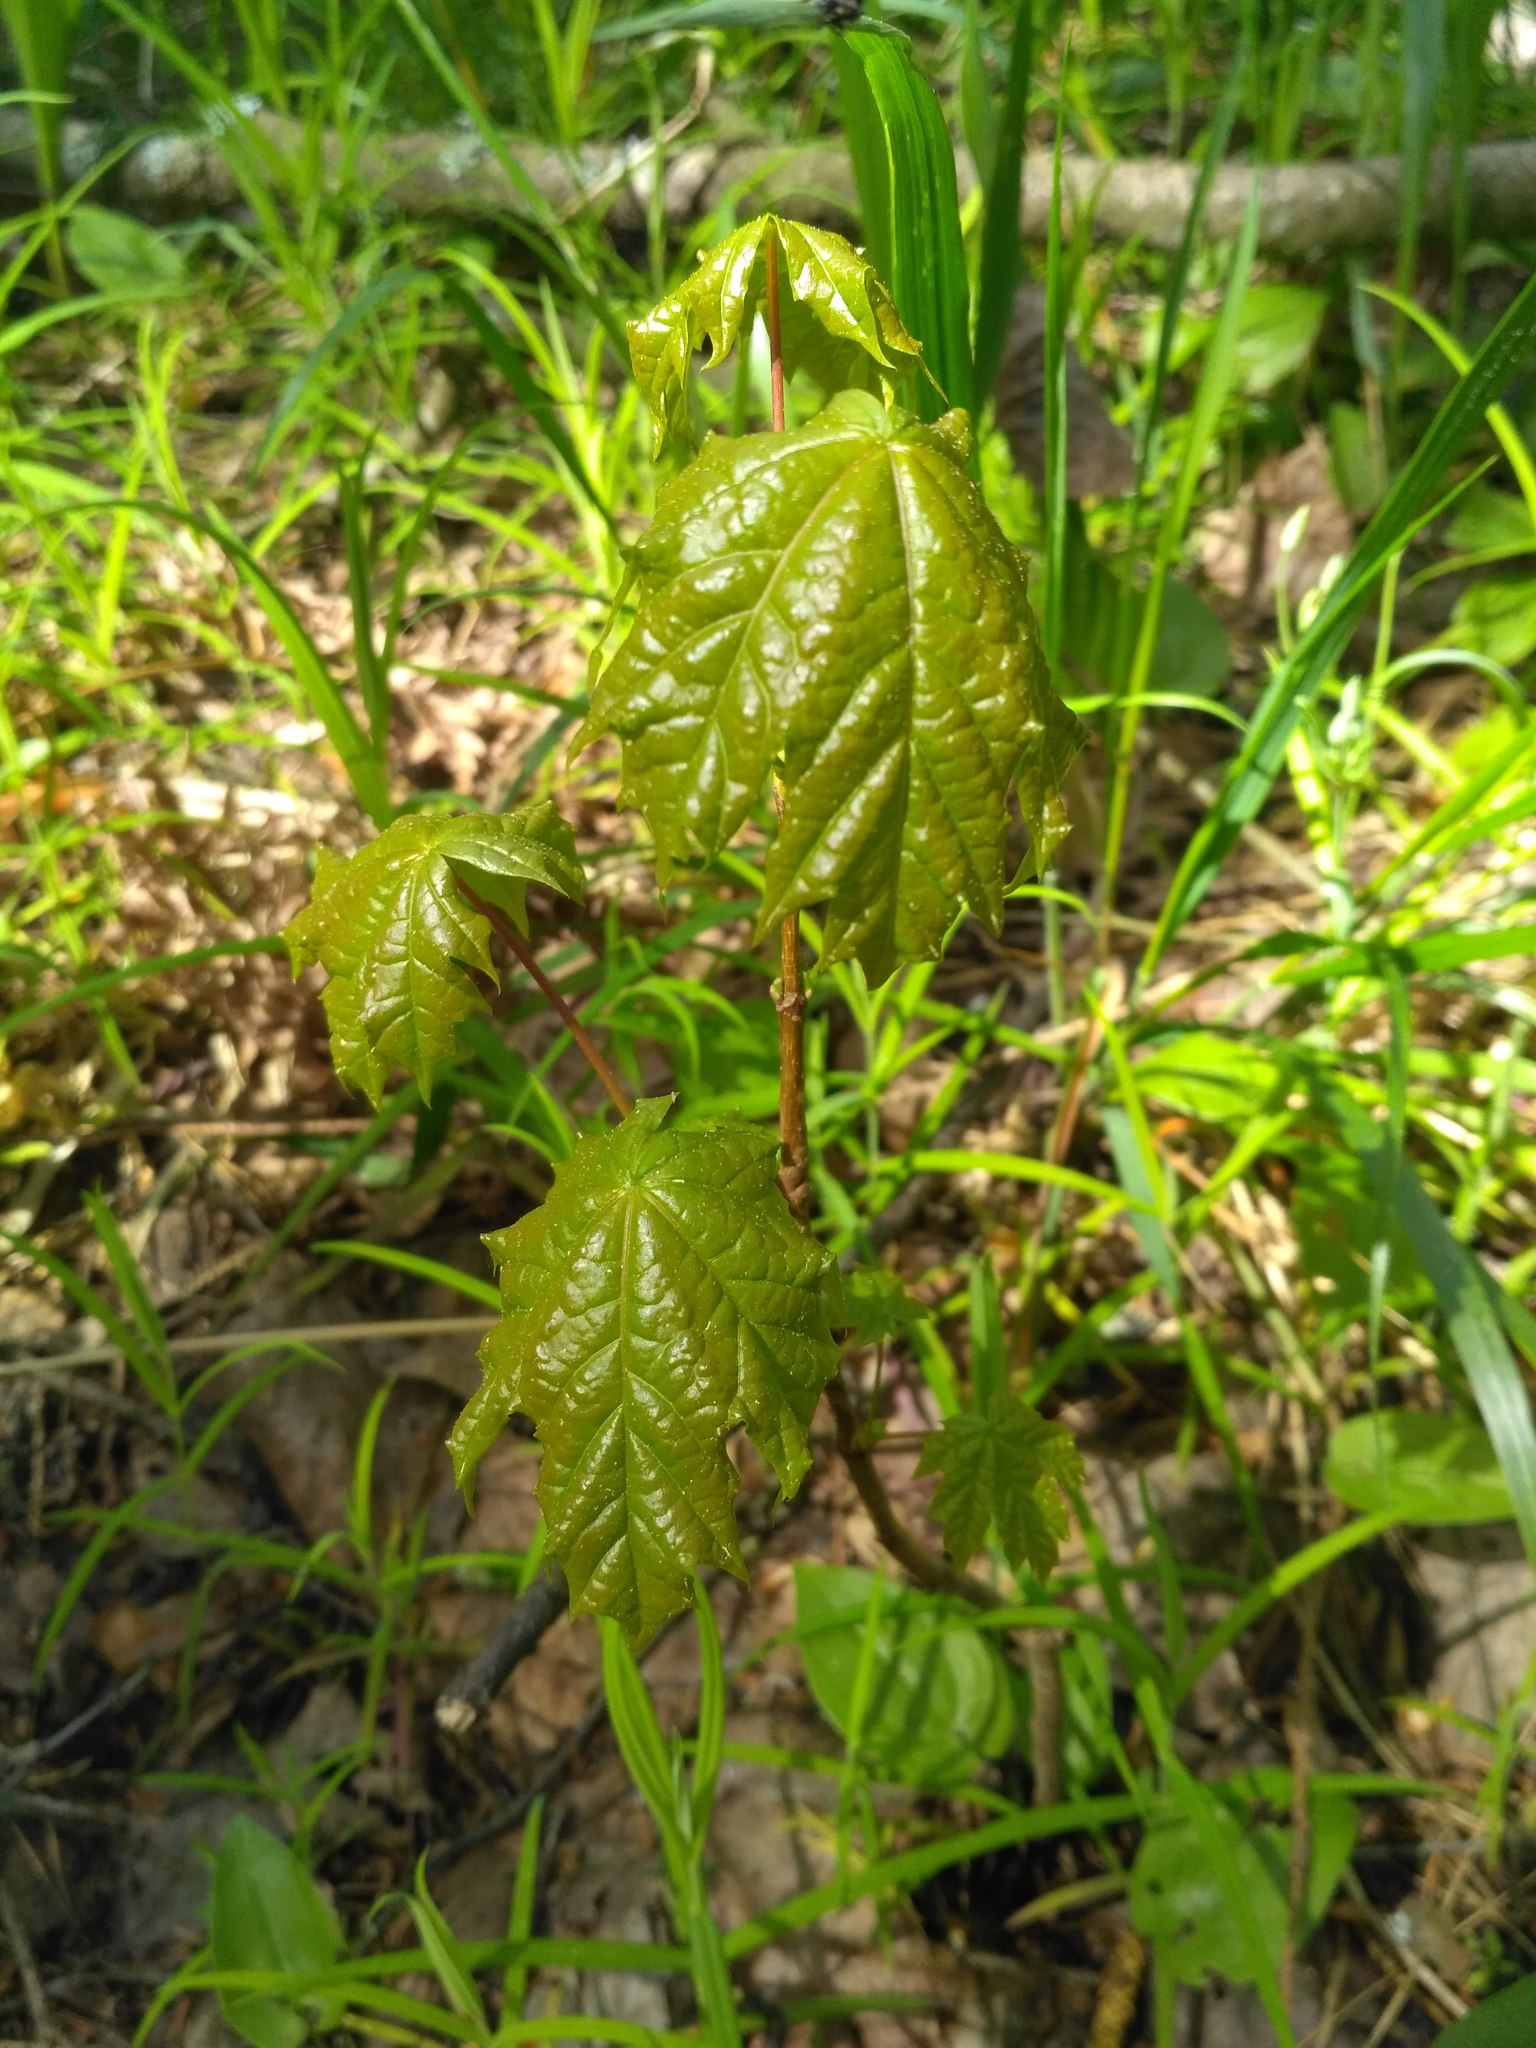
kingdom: Plantae
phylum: Tracheophyta
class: Magnoliopsida
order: Sapindales
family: Sapindaceae
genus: Acer
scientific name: Acer platanoides
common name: Norway maple
